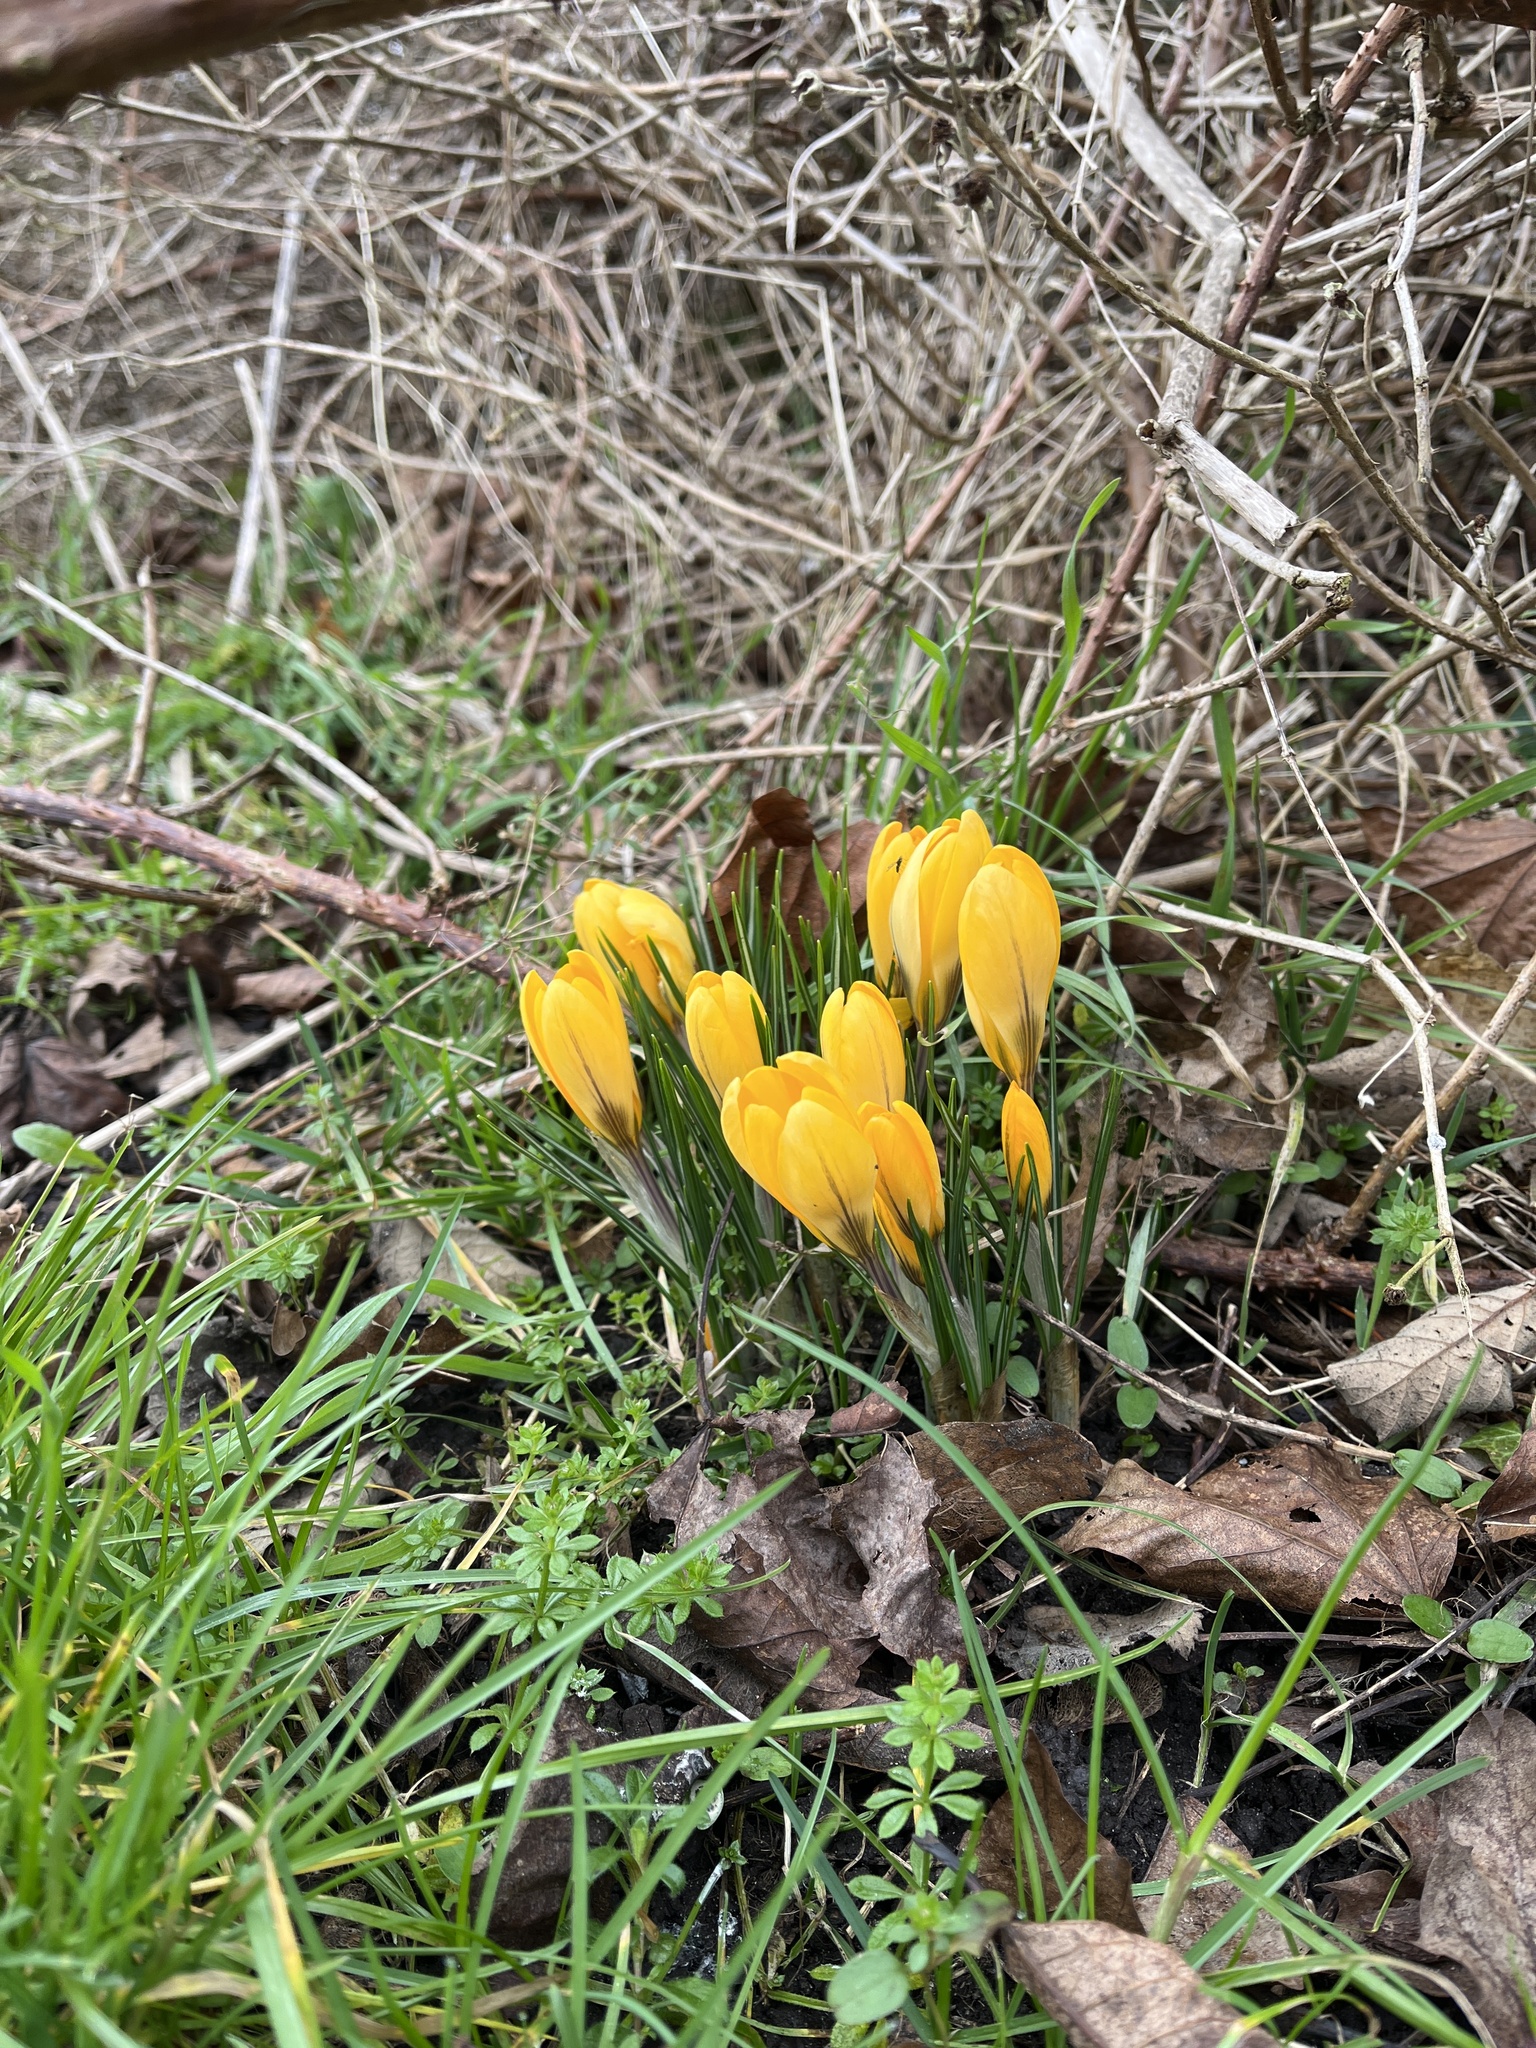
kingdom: Plantae
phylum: Tracheophyta
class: Liliopsida
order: Asparagales
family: Iridaceae
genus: Crocus
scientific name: Crocus luteus
